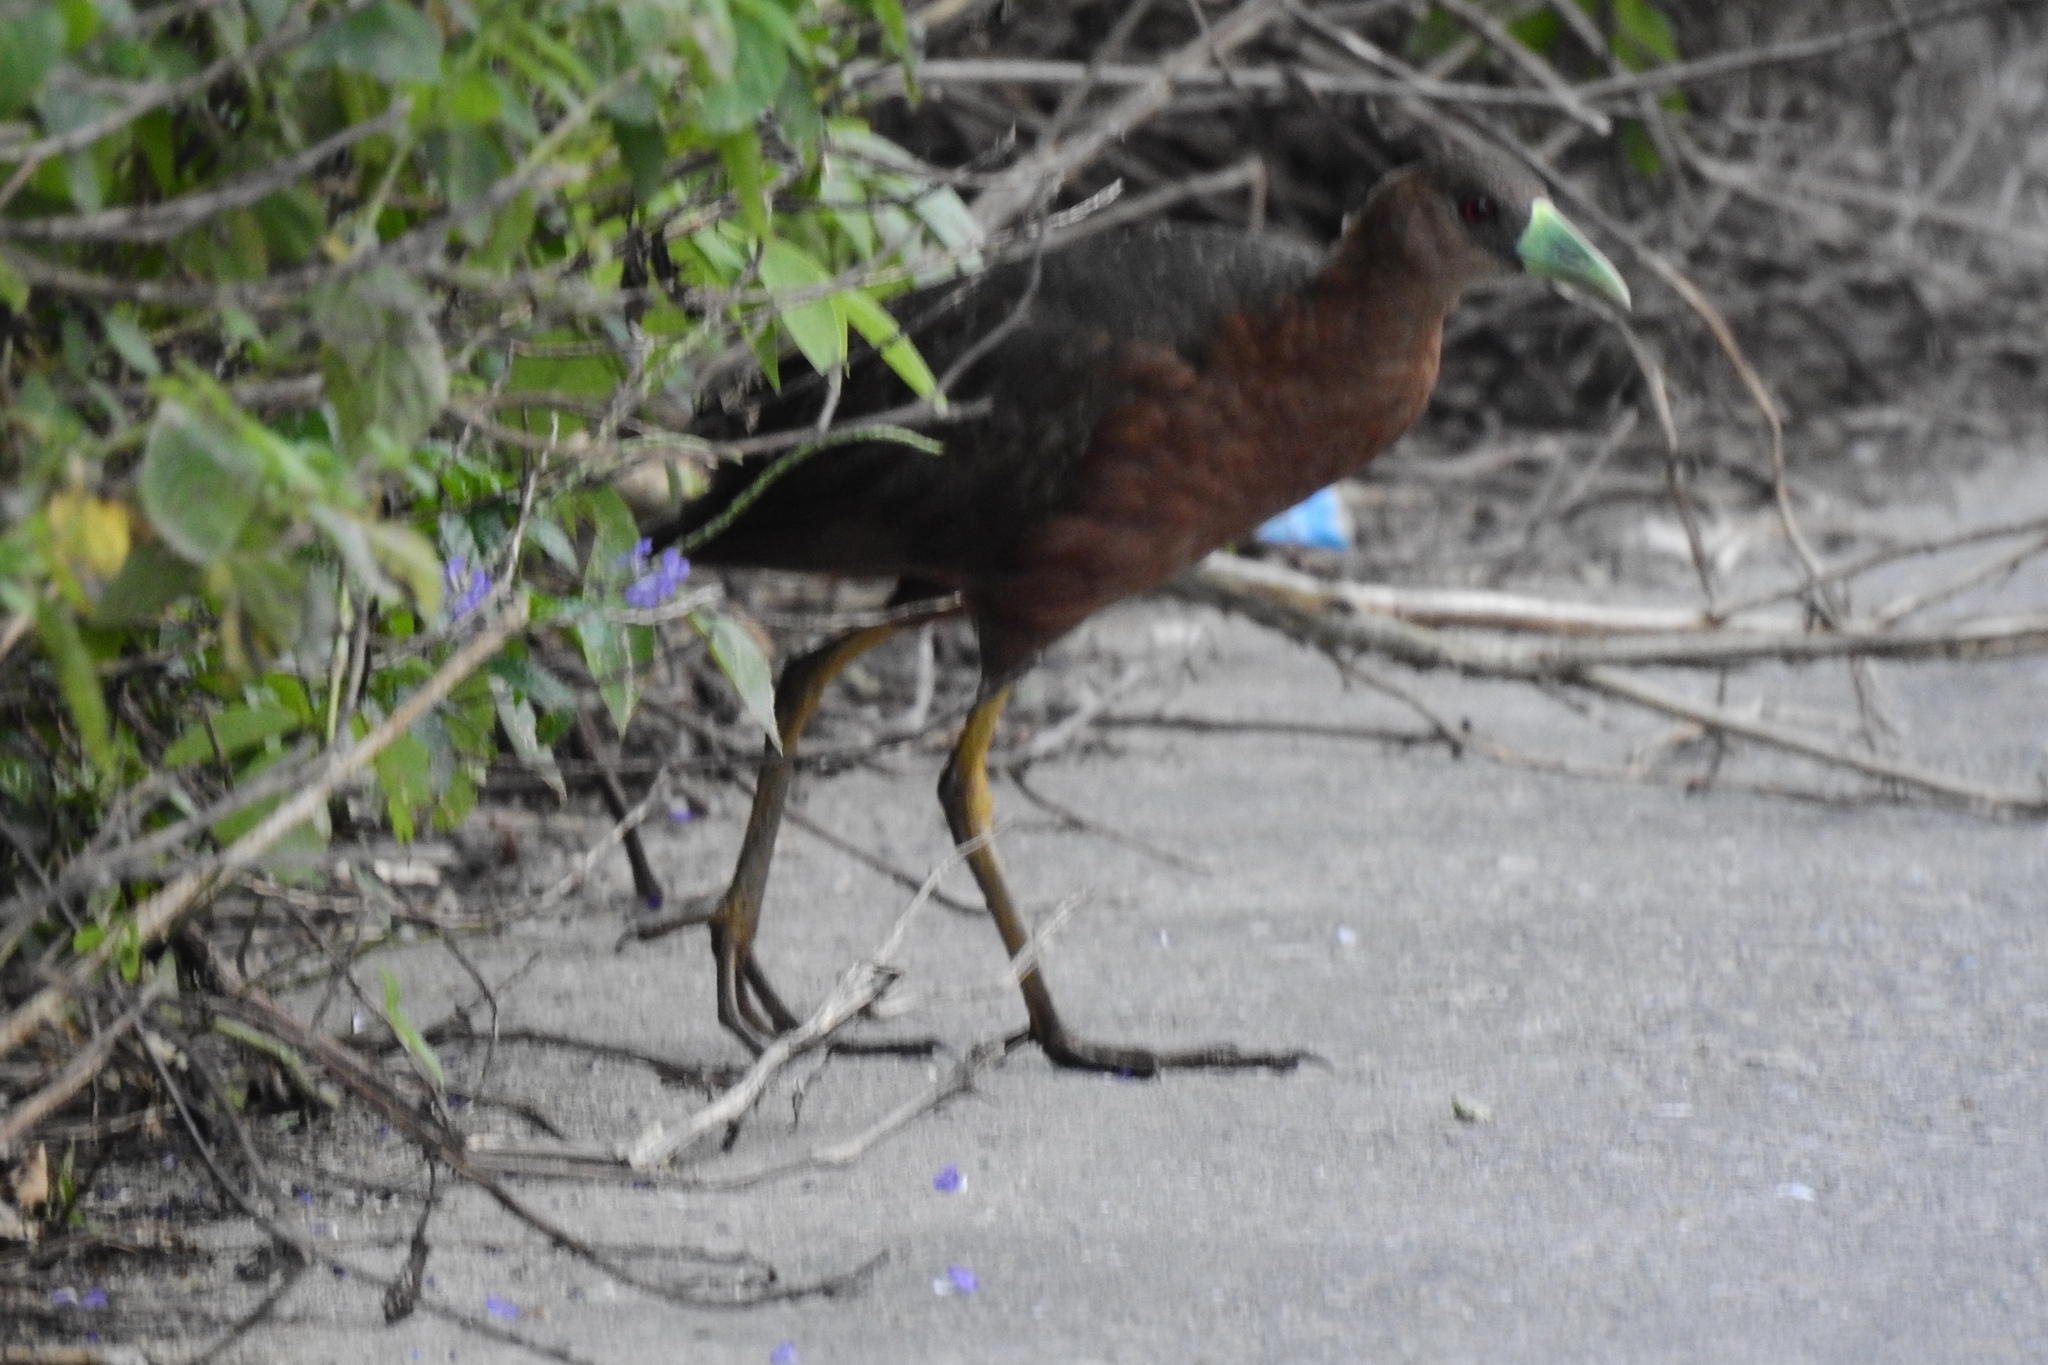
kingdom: Animalia
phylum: Chordata
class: Aves
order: Gruiformes
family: Rallidae
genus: Amaurornis
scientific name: Amaurornis isabellina
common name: Isabelline bush-hen
